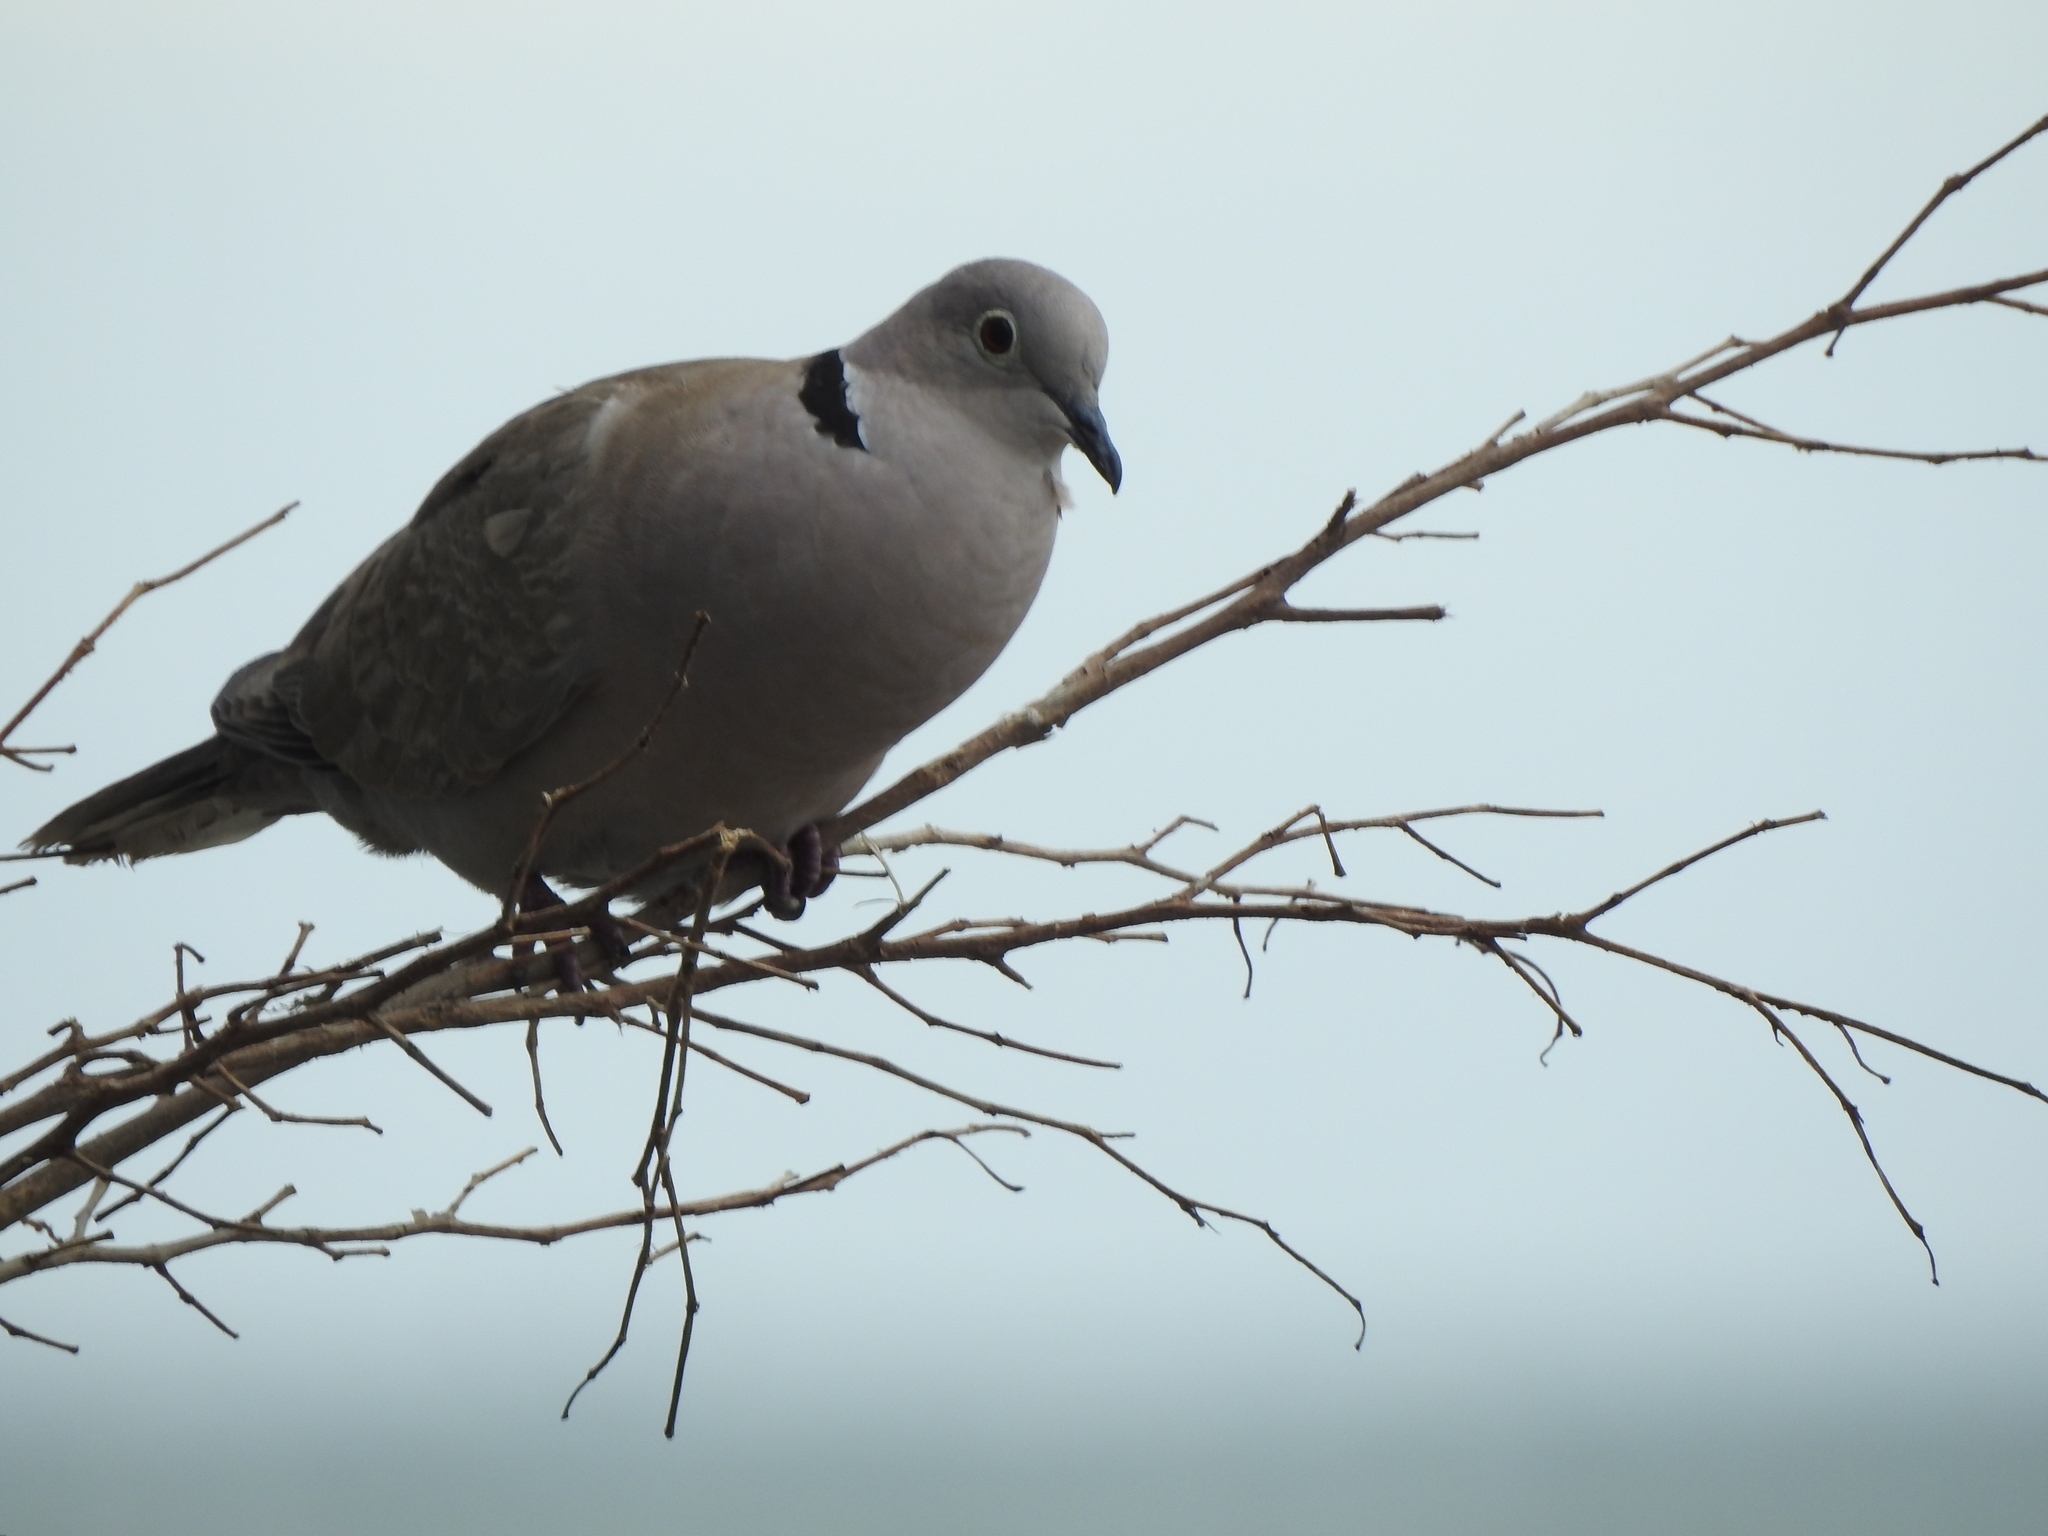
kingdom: Animalia
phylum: Chordata
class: Aves
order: Columbiformes
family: Columbidae
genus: Streptopelia
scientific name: Streptopelia decaocto
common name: Eurasian collared dove
